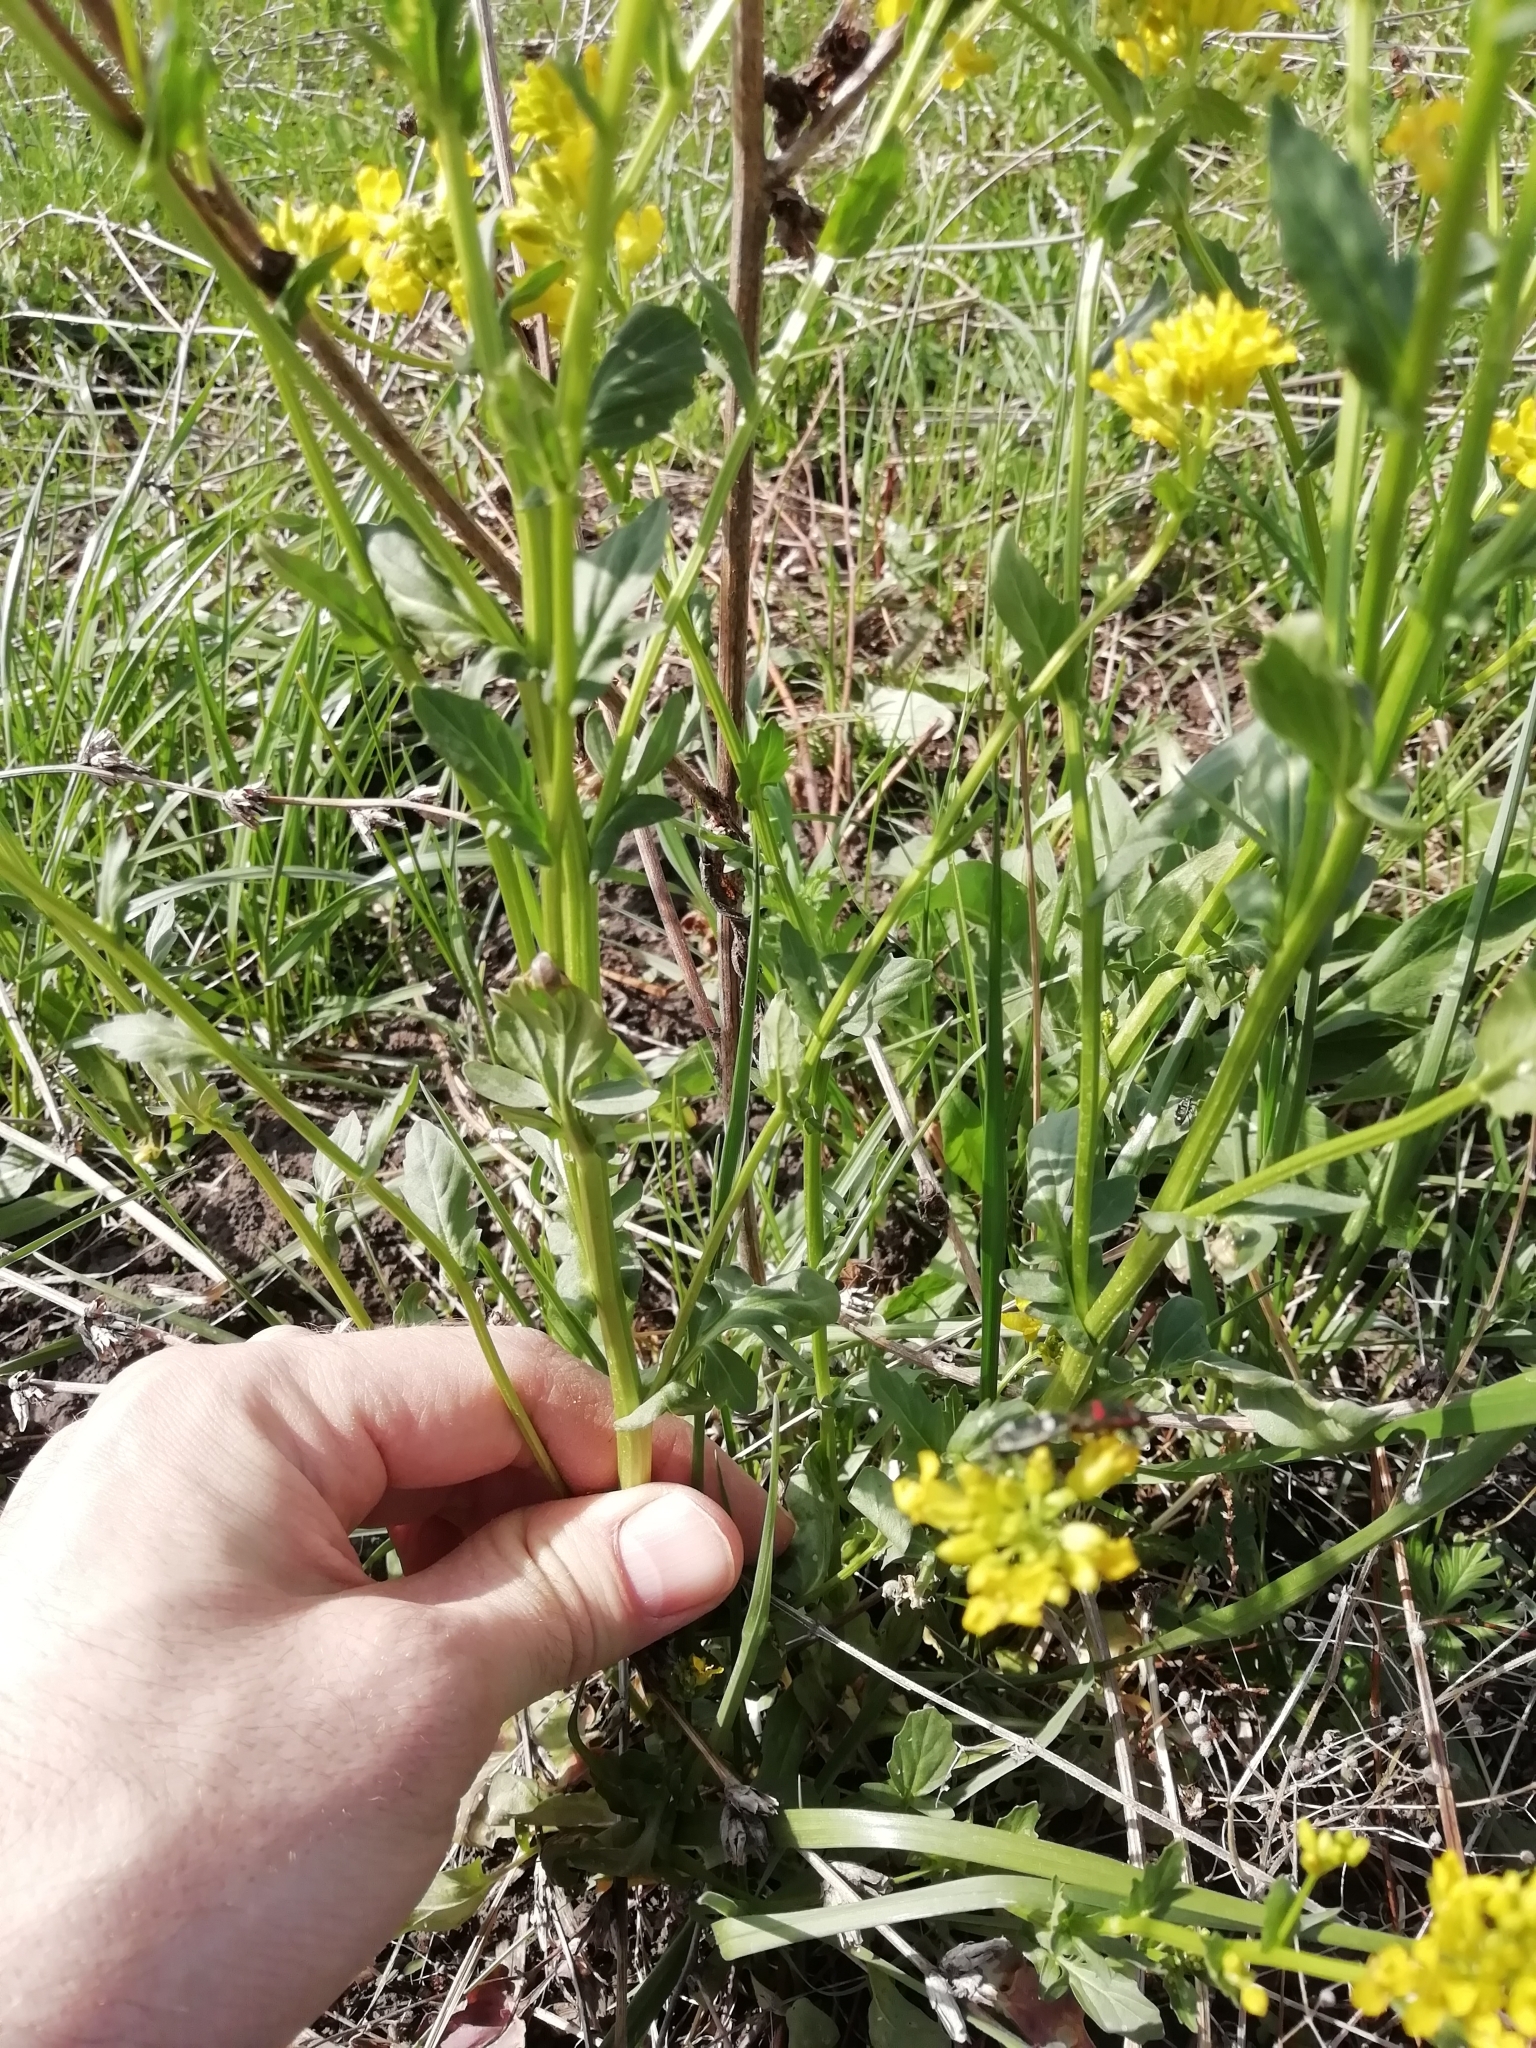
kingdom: Plantae
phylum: Tracheophyta
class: Magnoliopsida
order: Brassicales
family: Brassicaceae
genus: Barbarea
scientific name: Barbarea vulgaris
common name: Cressy-greens
